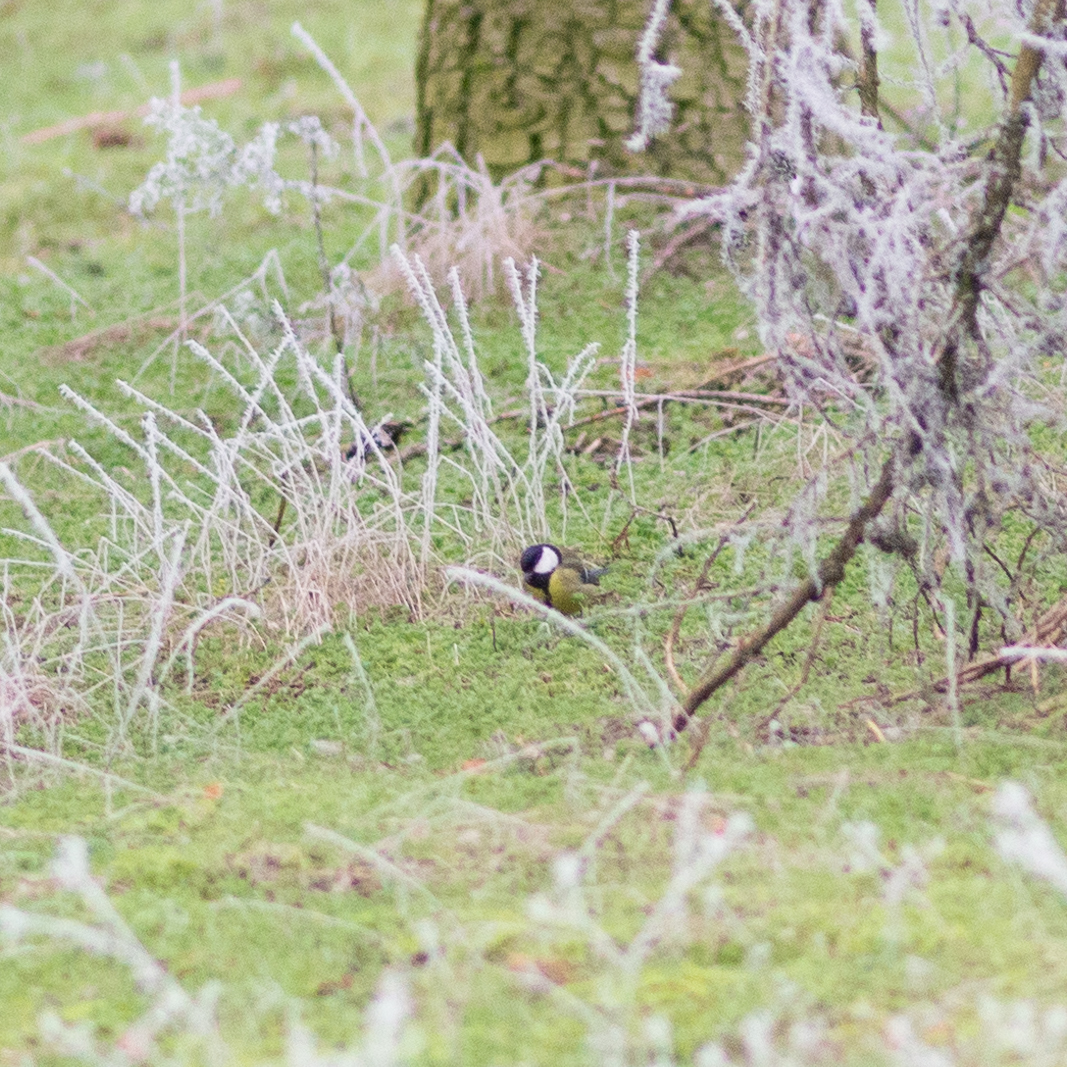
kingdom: Animalia
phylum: Chordata
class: Aves
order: Passeriformes
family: Paridae
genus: Parus
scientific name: Parus major
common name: Great tit
